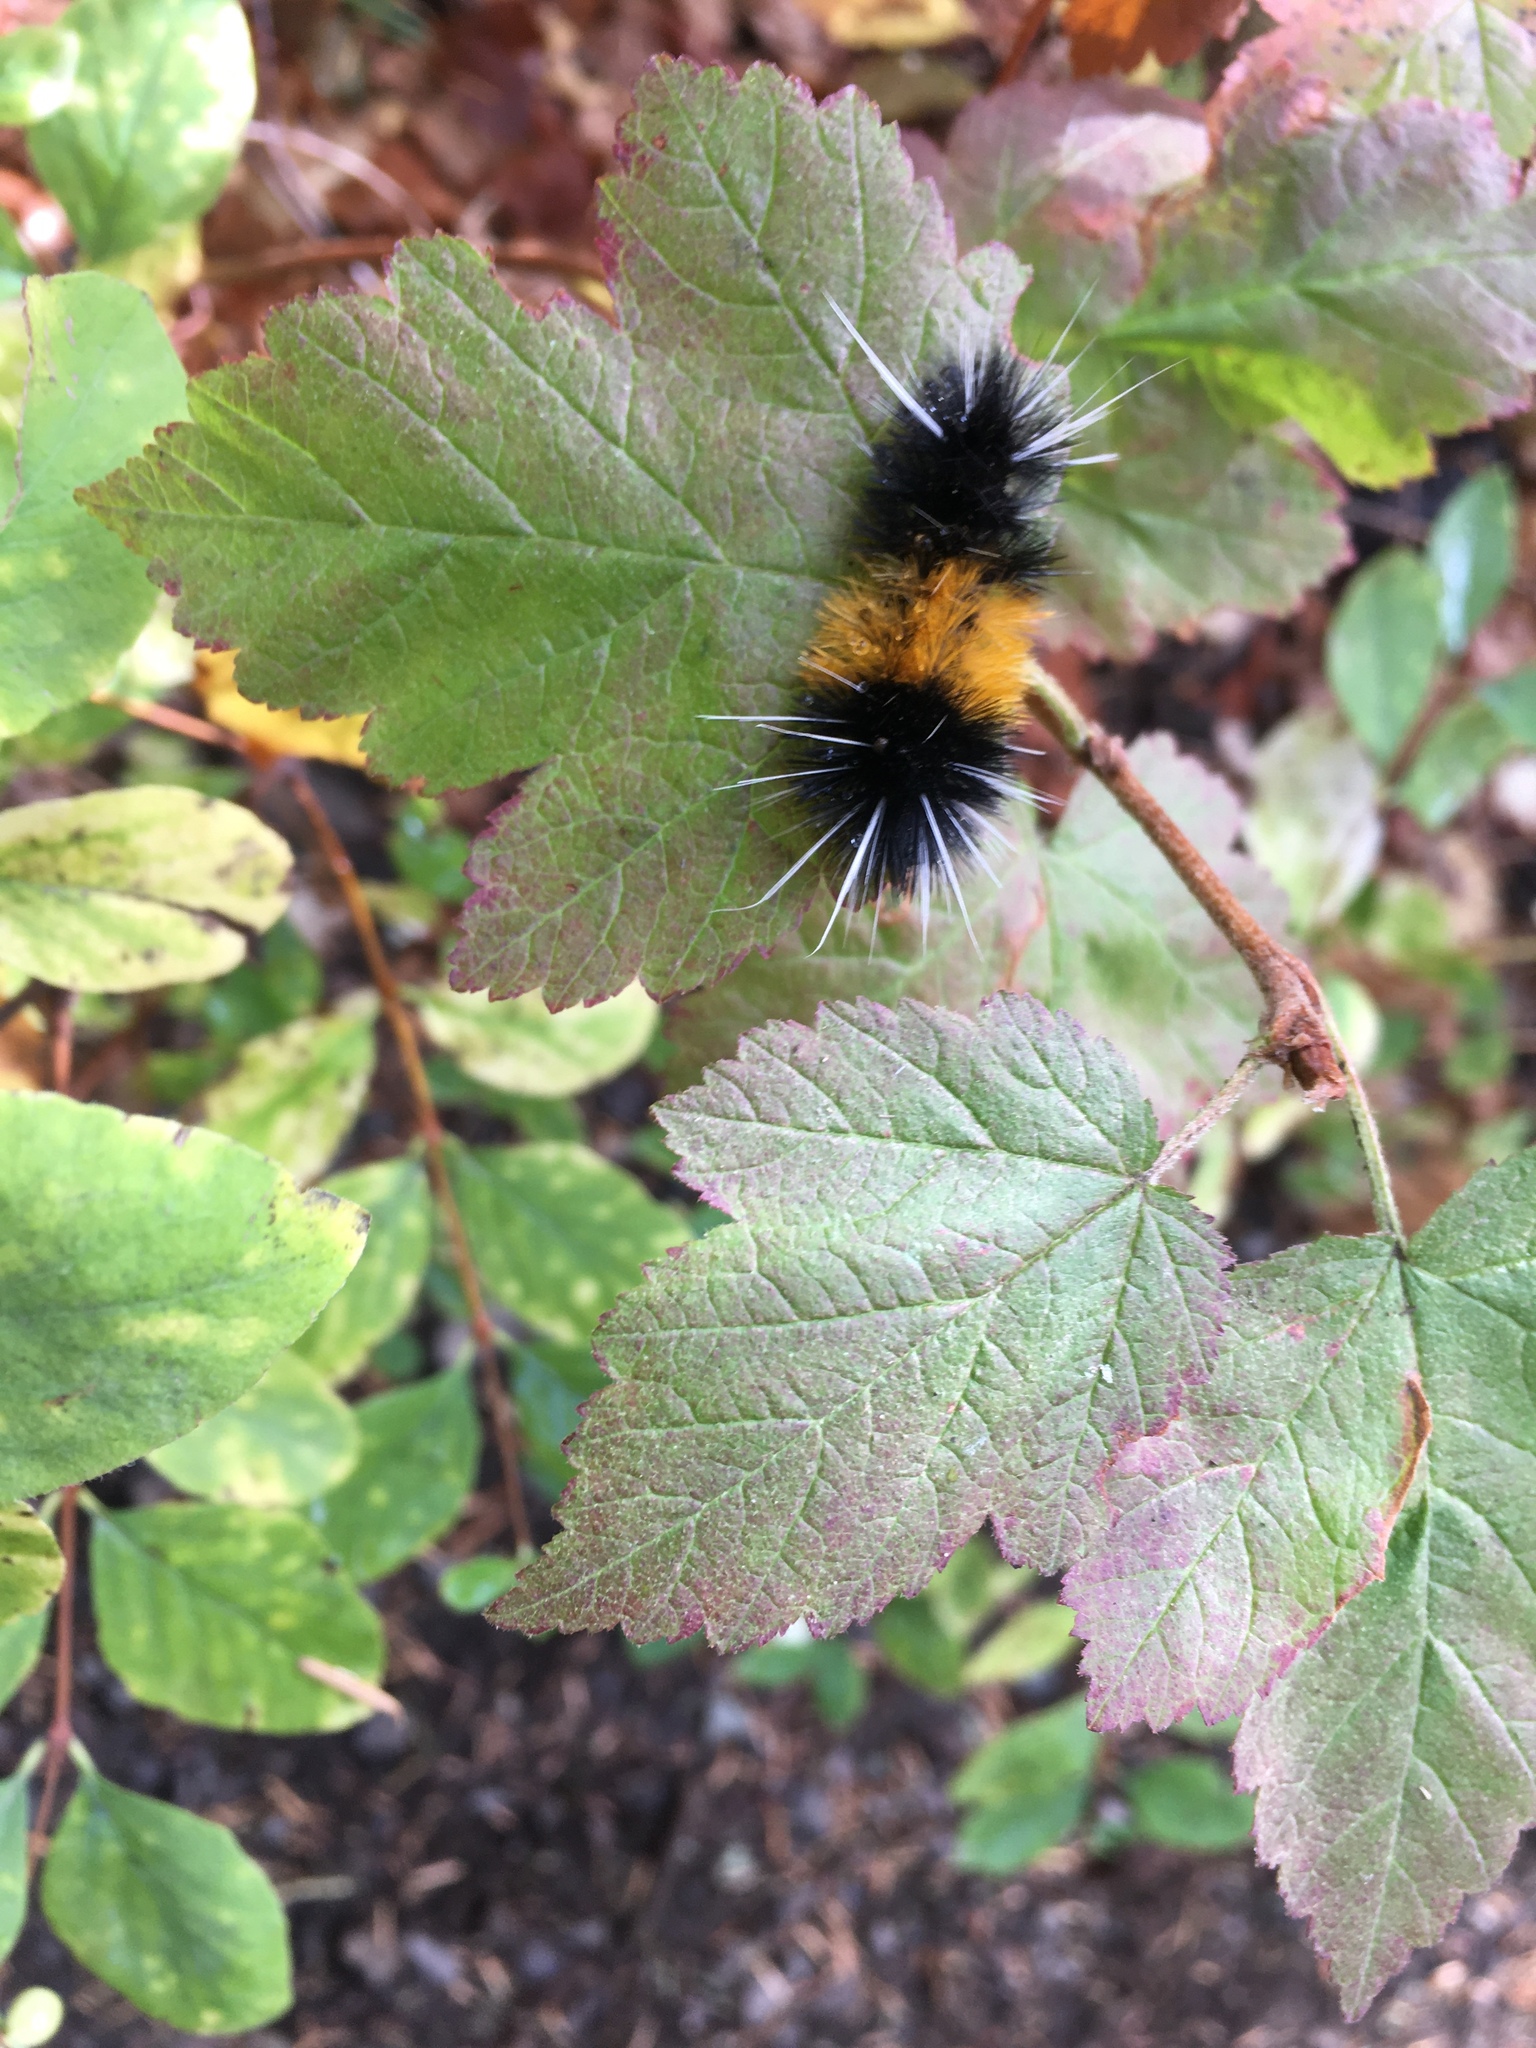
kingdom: Animalia
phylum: Arthropoda
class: Insecta
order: Lepidoptera
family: Erebidae
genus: Lophocampa
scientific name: Lophocampa maculata
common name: Spotted tussock moth
